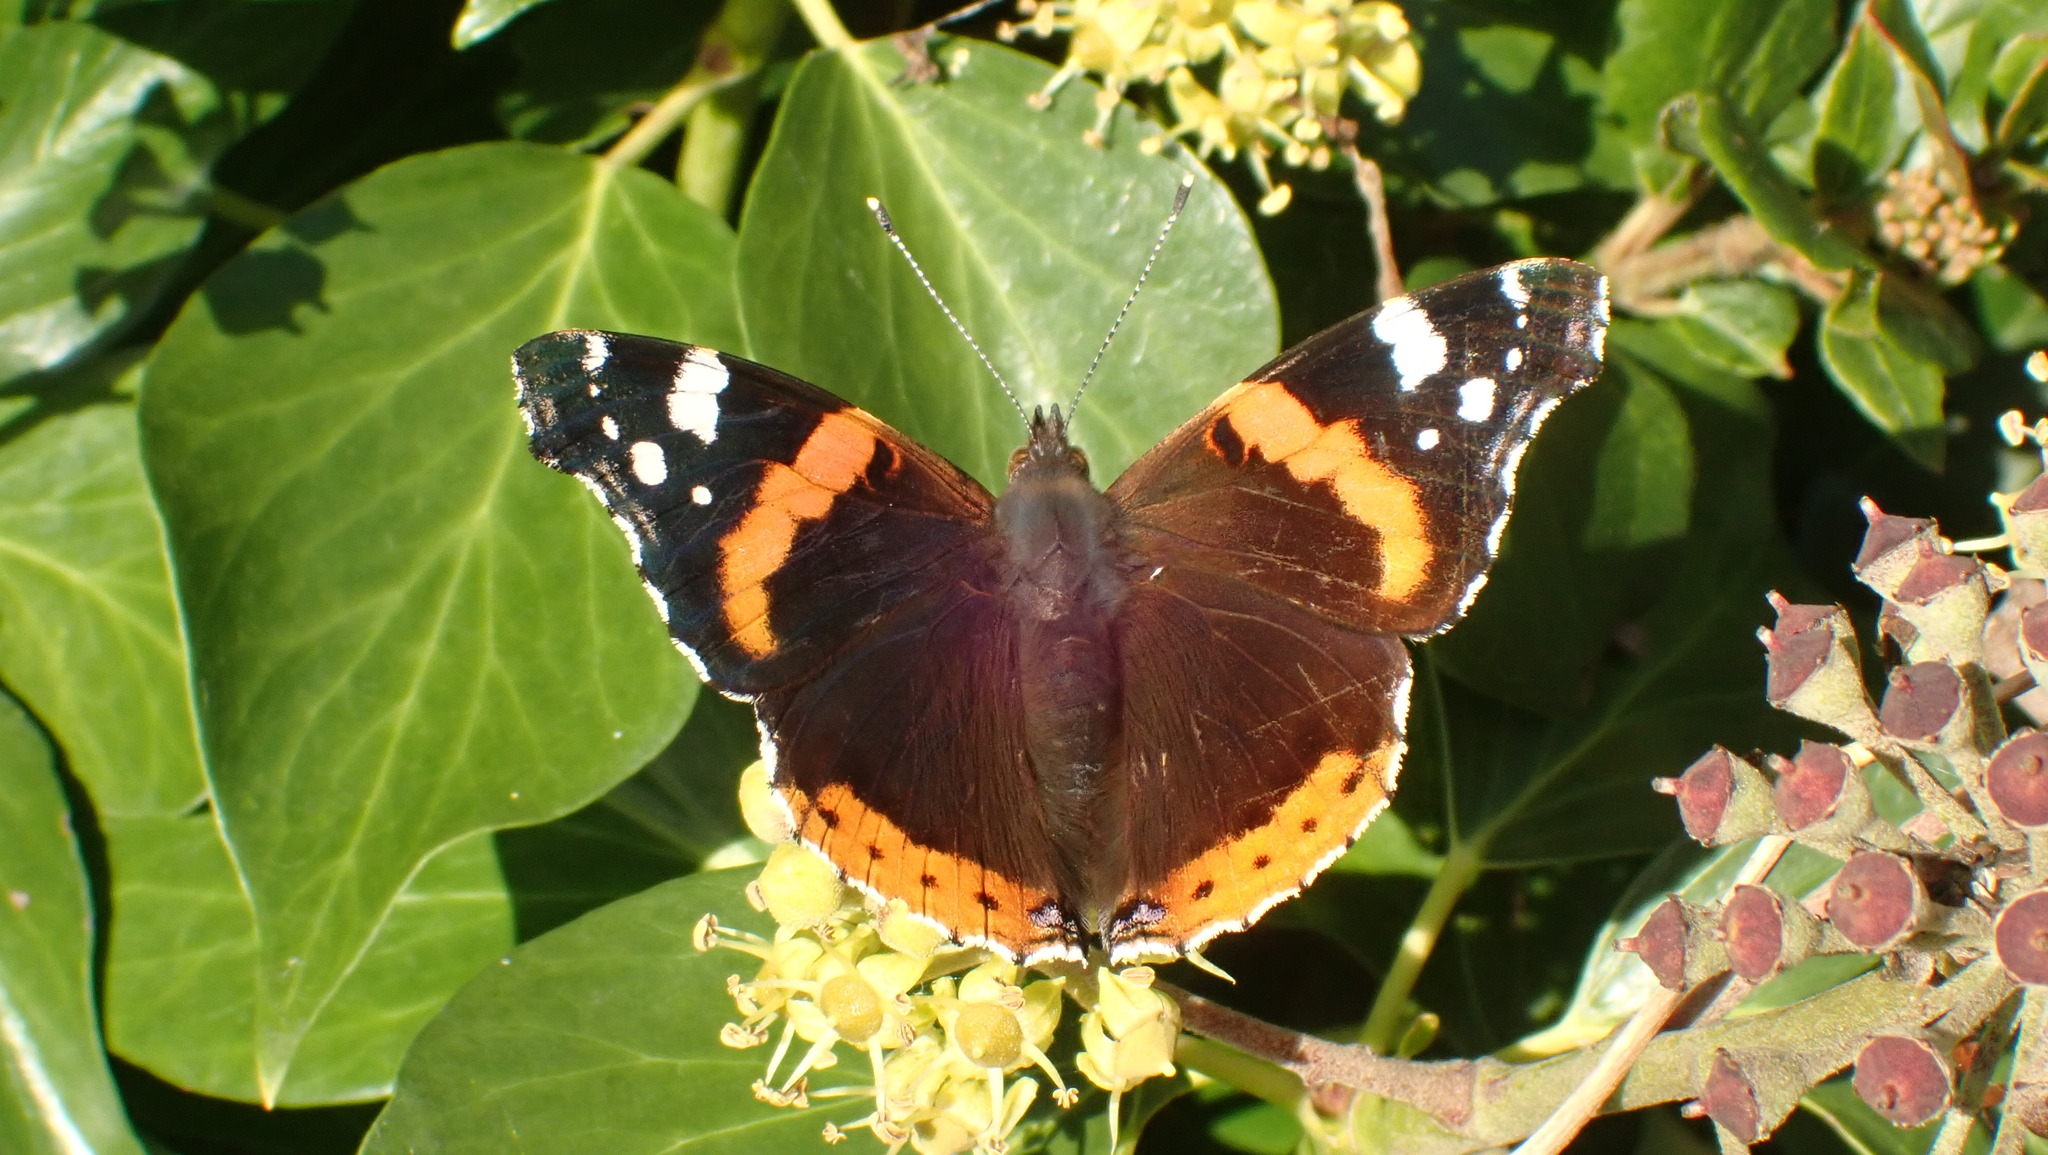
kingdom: Animalia
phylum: Arthropoda
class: Insecta
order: Lepidoptera
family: Nymphalidae
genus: Vanessa
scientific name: Vanessa atalanta
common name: Red admiral
